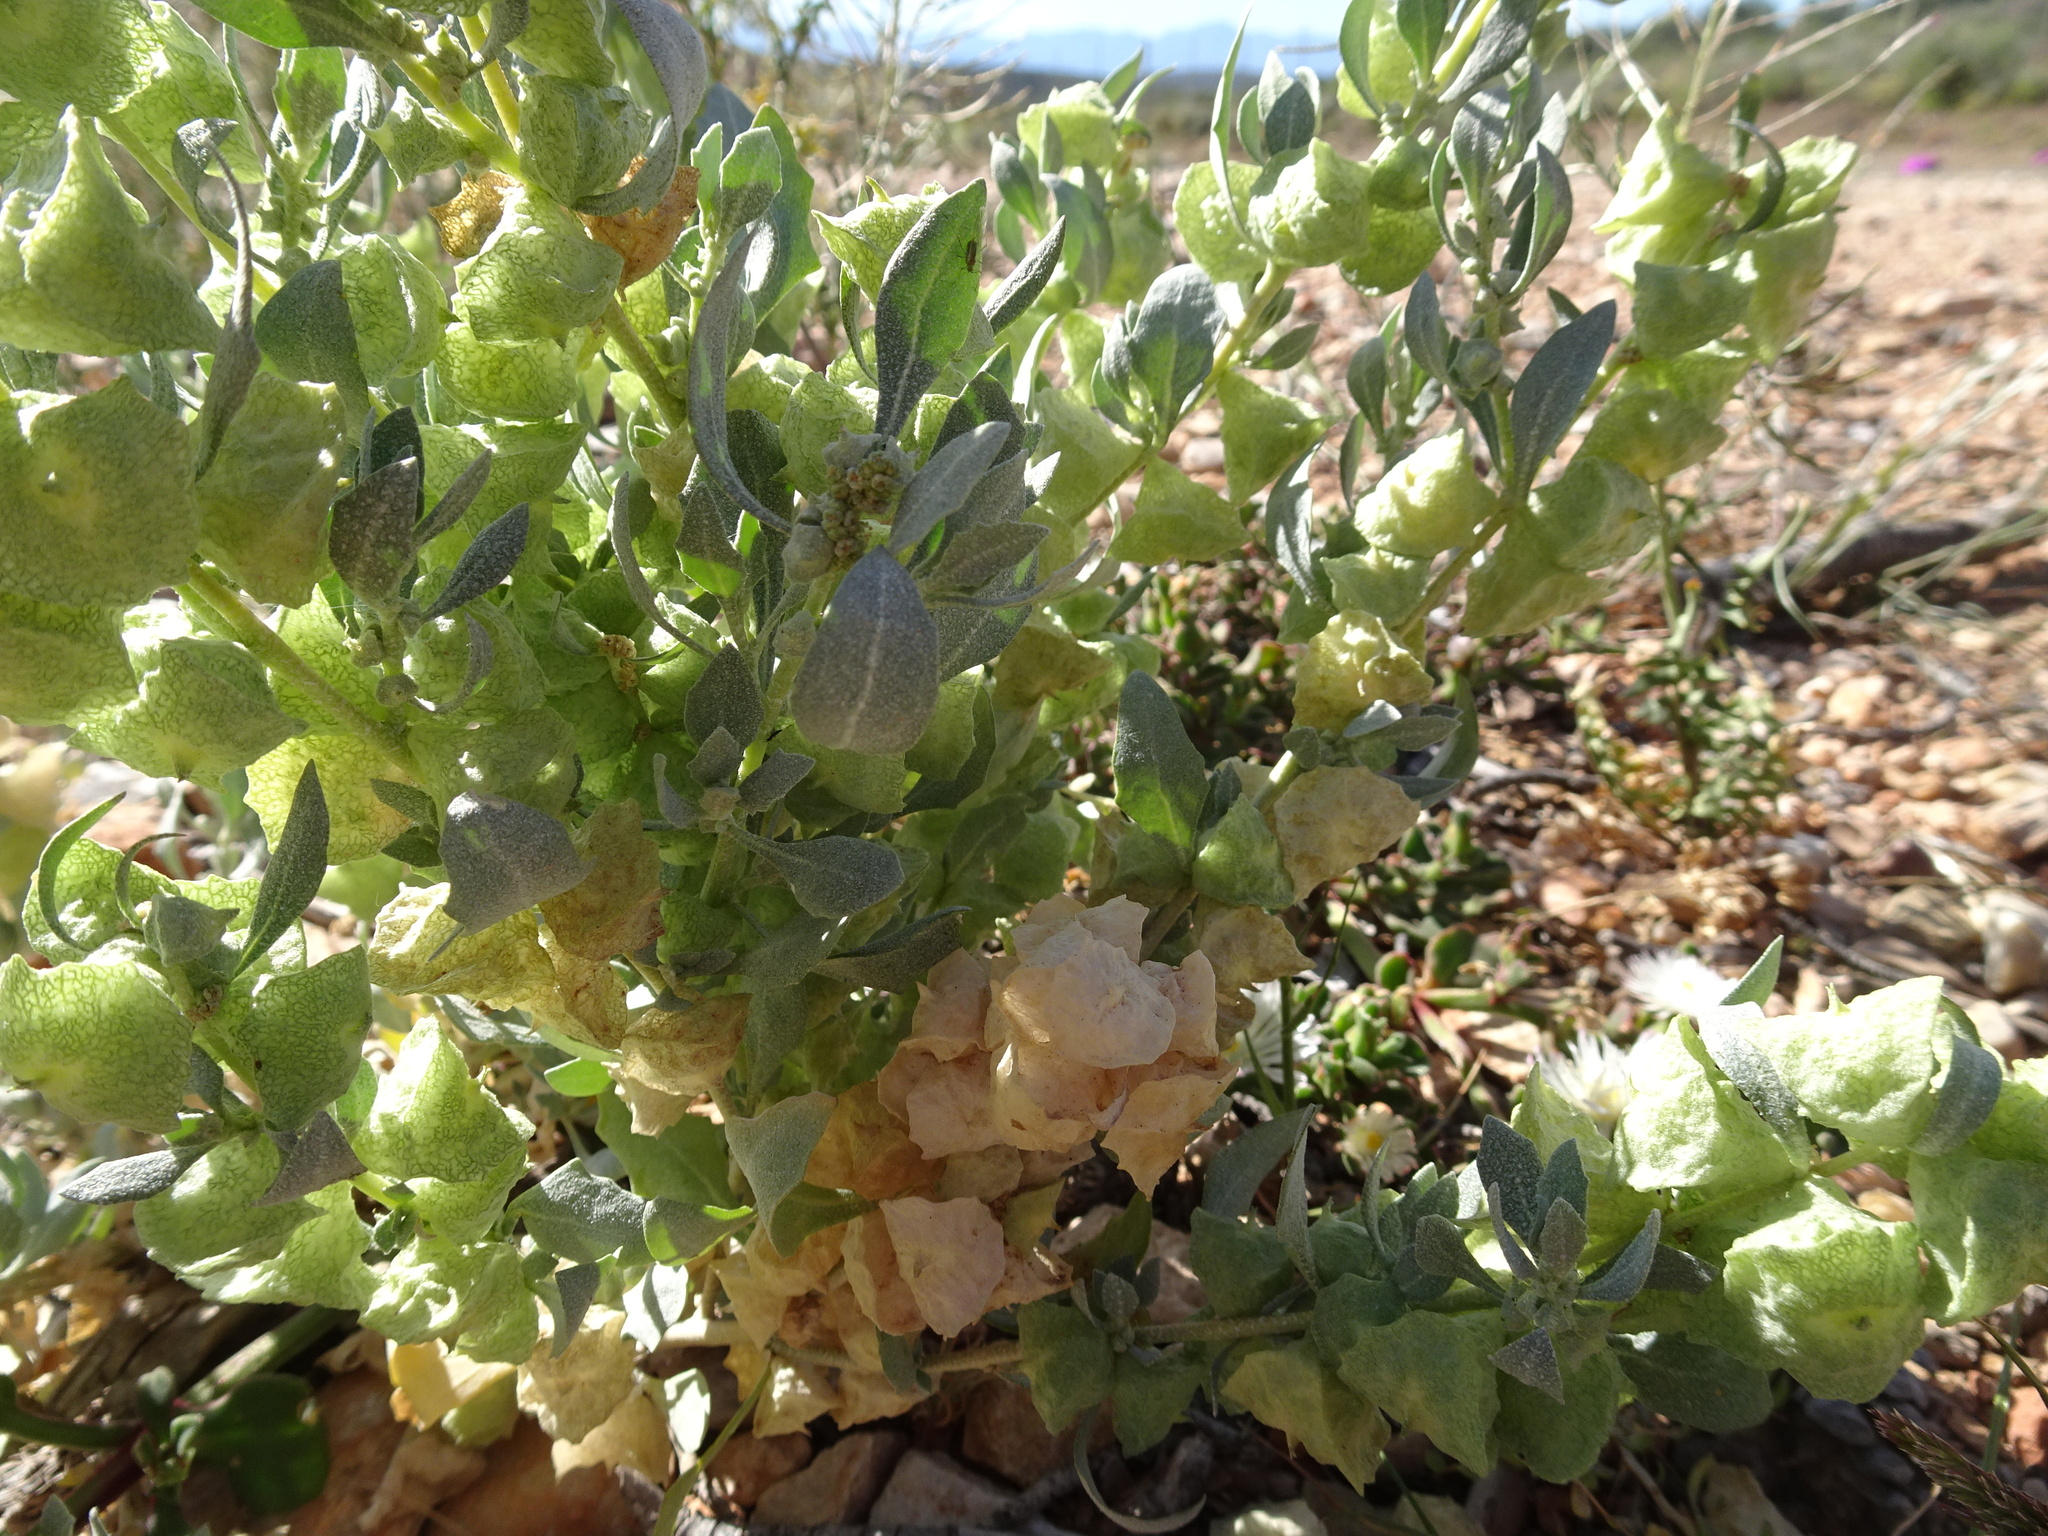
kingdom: Plantae
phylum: Tracheophyta
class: Magnoliopsida
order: Caryophyllales
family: Amaranthaceae
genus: Atriplex
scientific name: Atriplex lindleyi
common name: Lindley's saltbush
